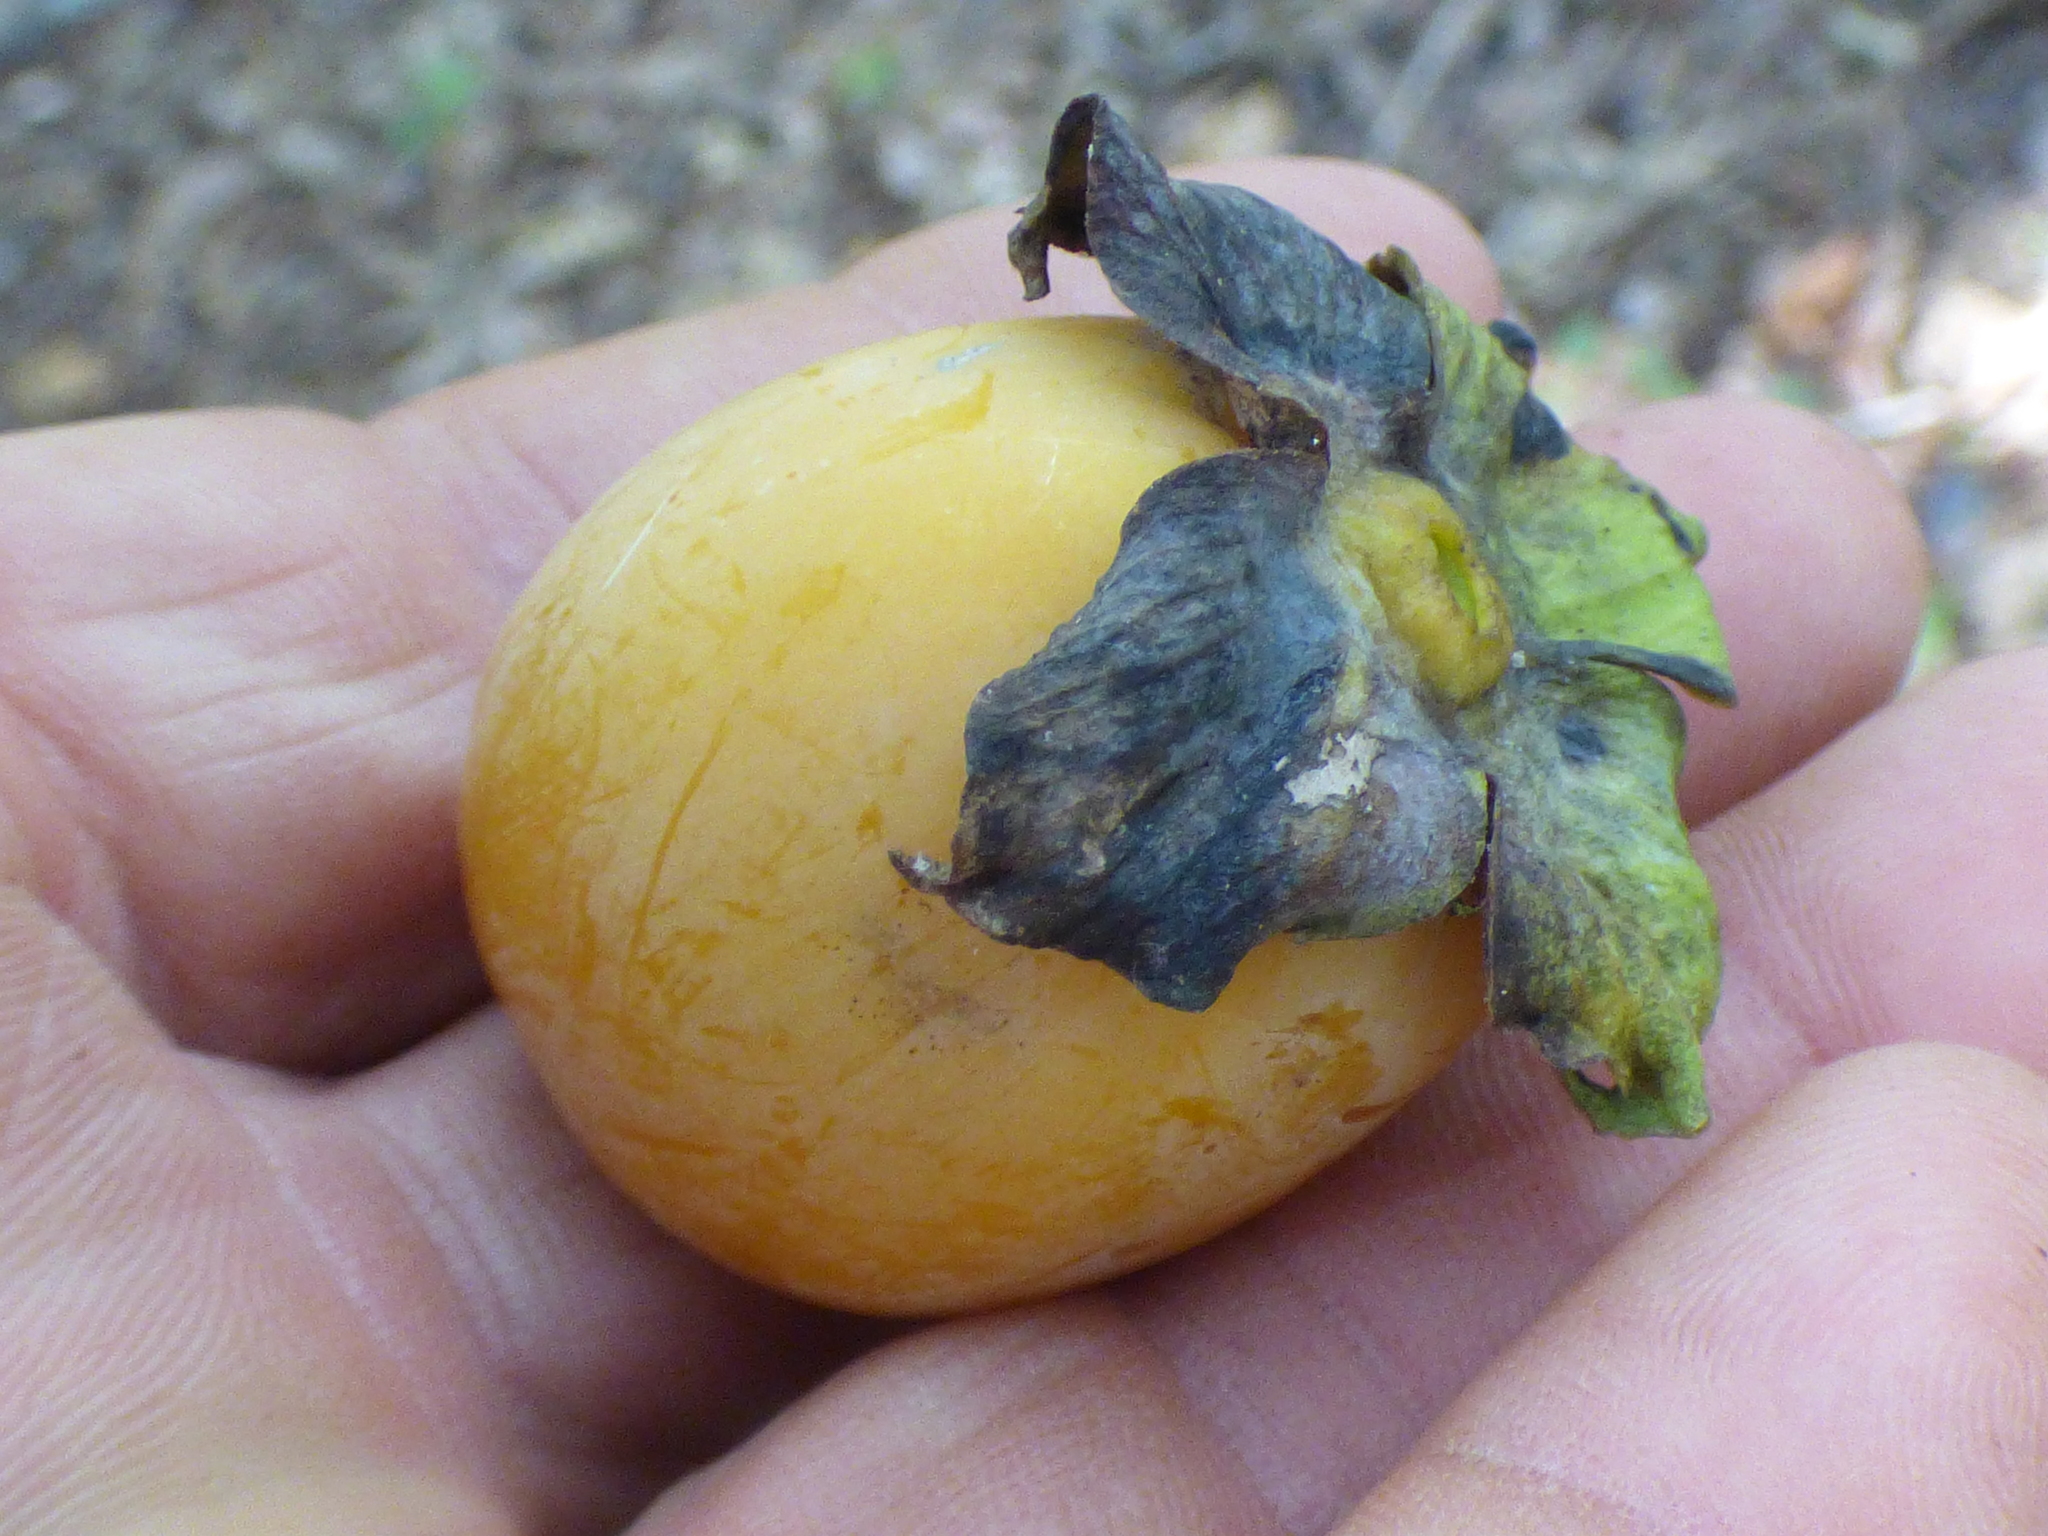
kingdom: Plantae
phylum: Tracheophyta
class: Magnoliopsida
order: Ericales
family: Ebenaceae
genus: Diospyros
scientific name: Diospyros virginiana
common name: Persimmon
